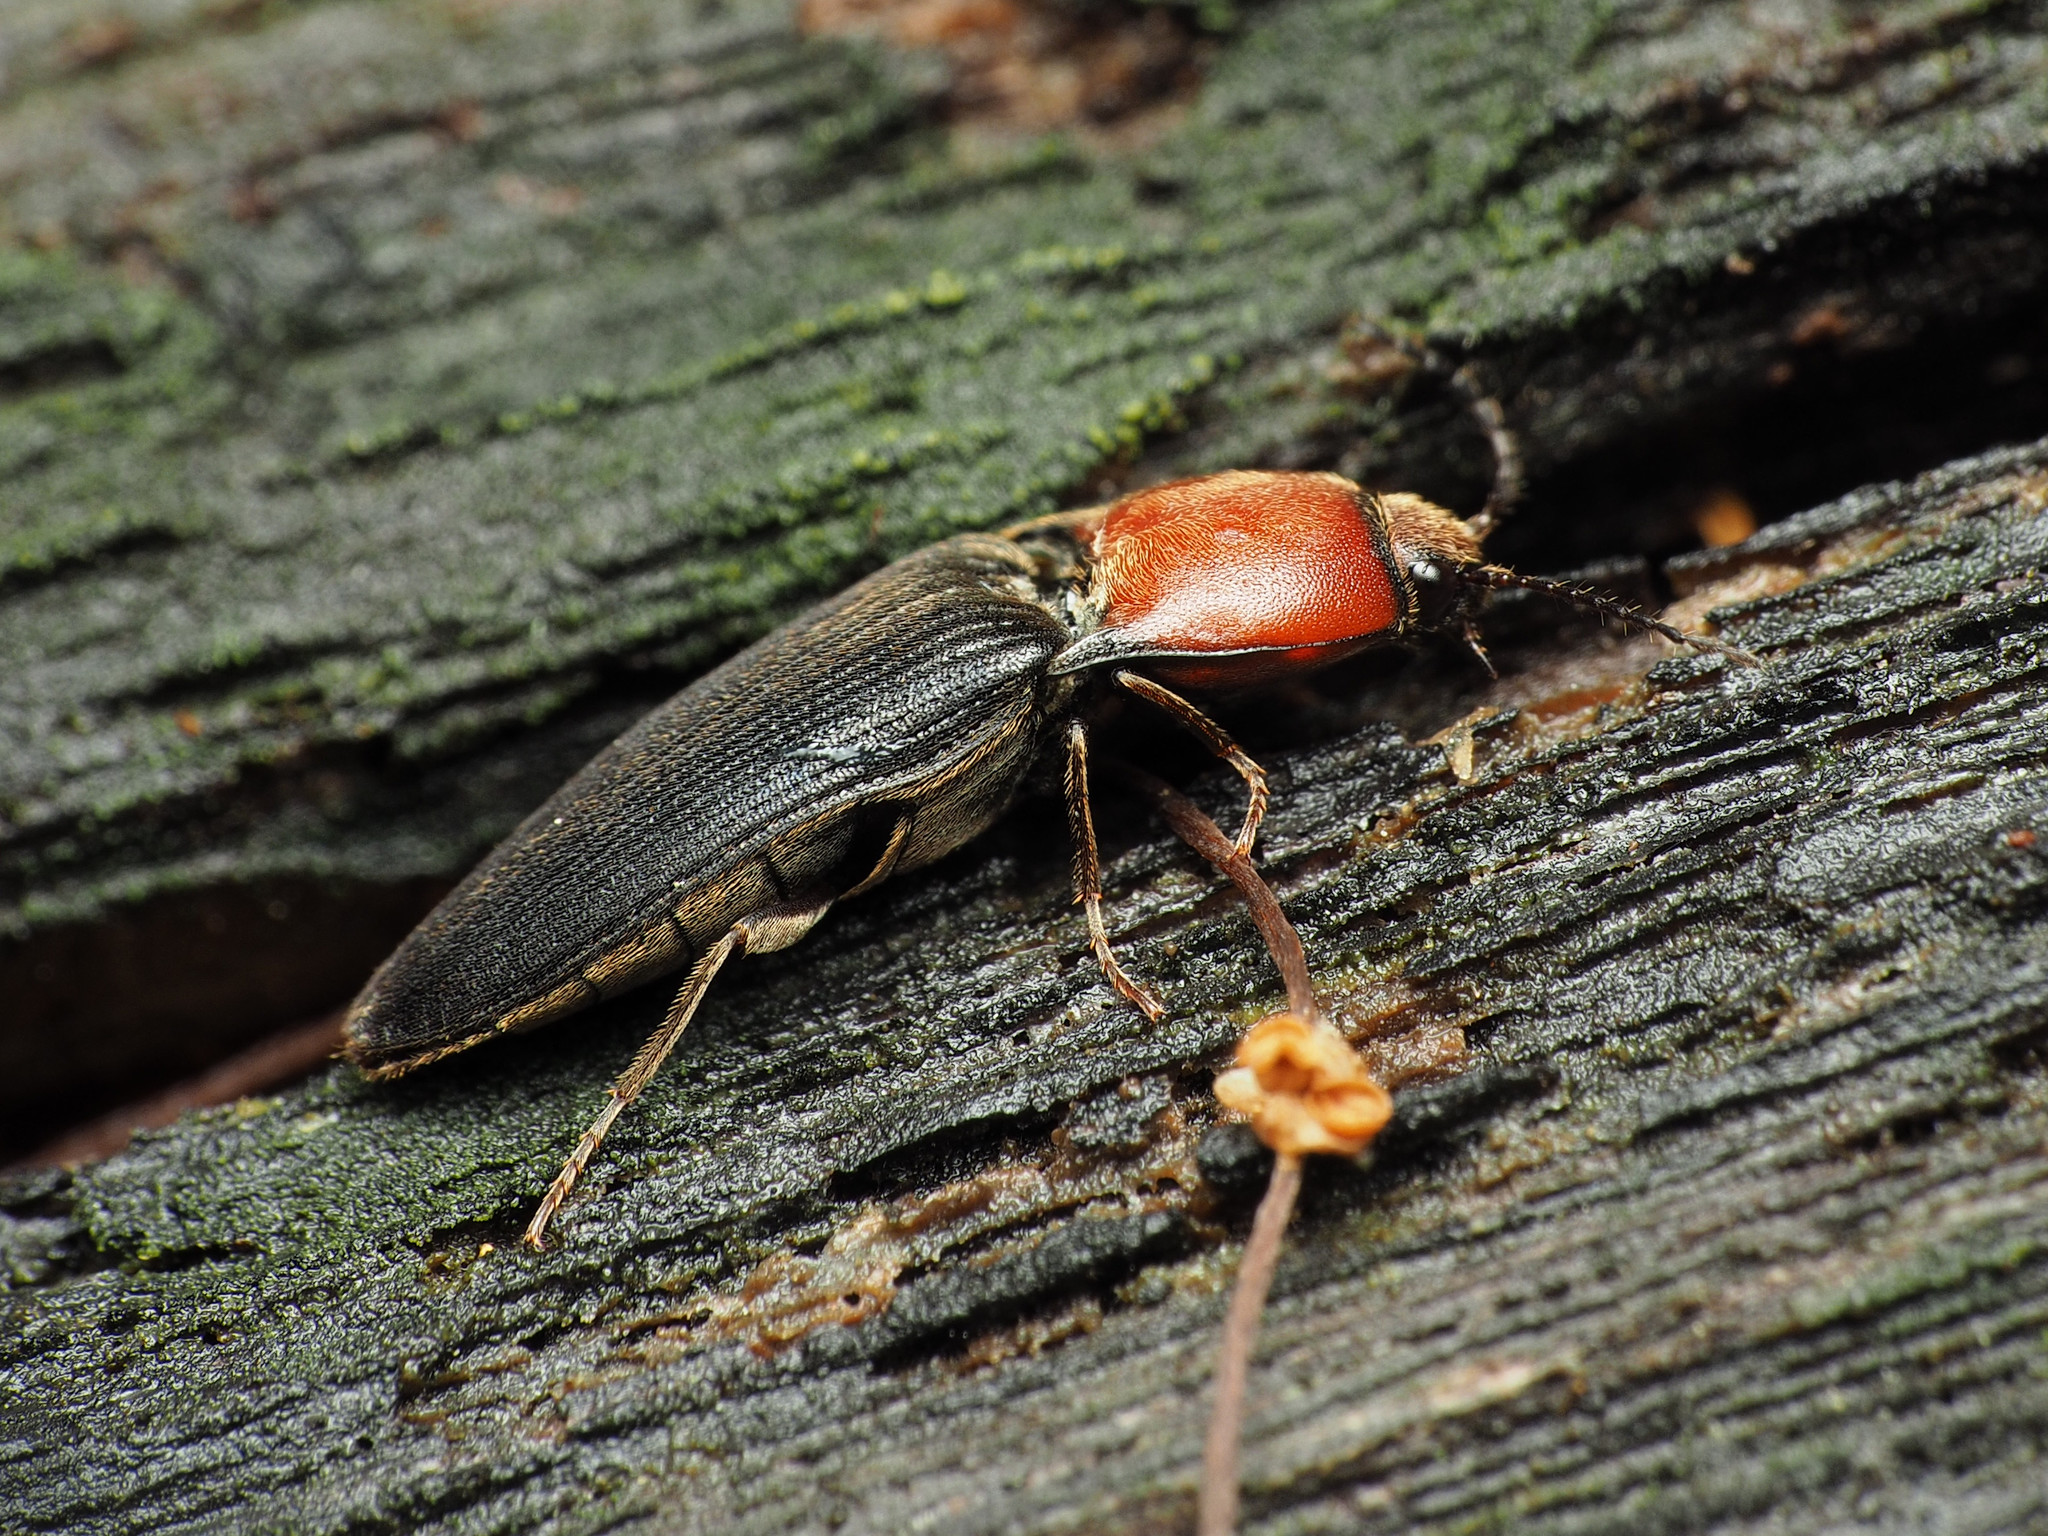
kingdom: Animalia
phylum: Arthropoda
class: Insecta
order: Coleoptera
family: Elateridae
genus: Ampedus
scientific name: Ampedus rubricollis
